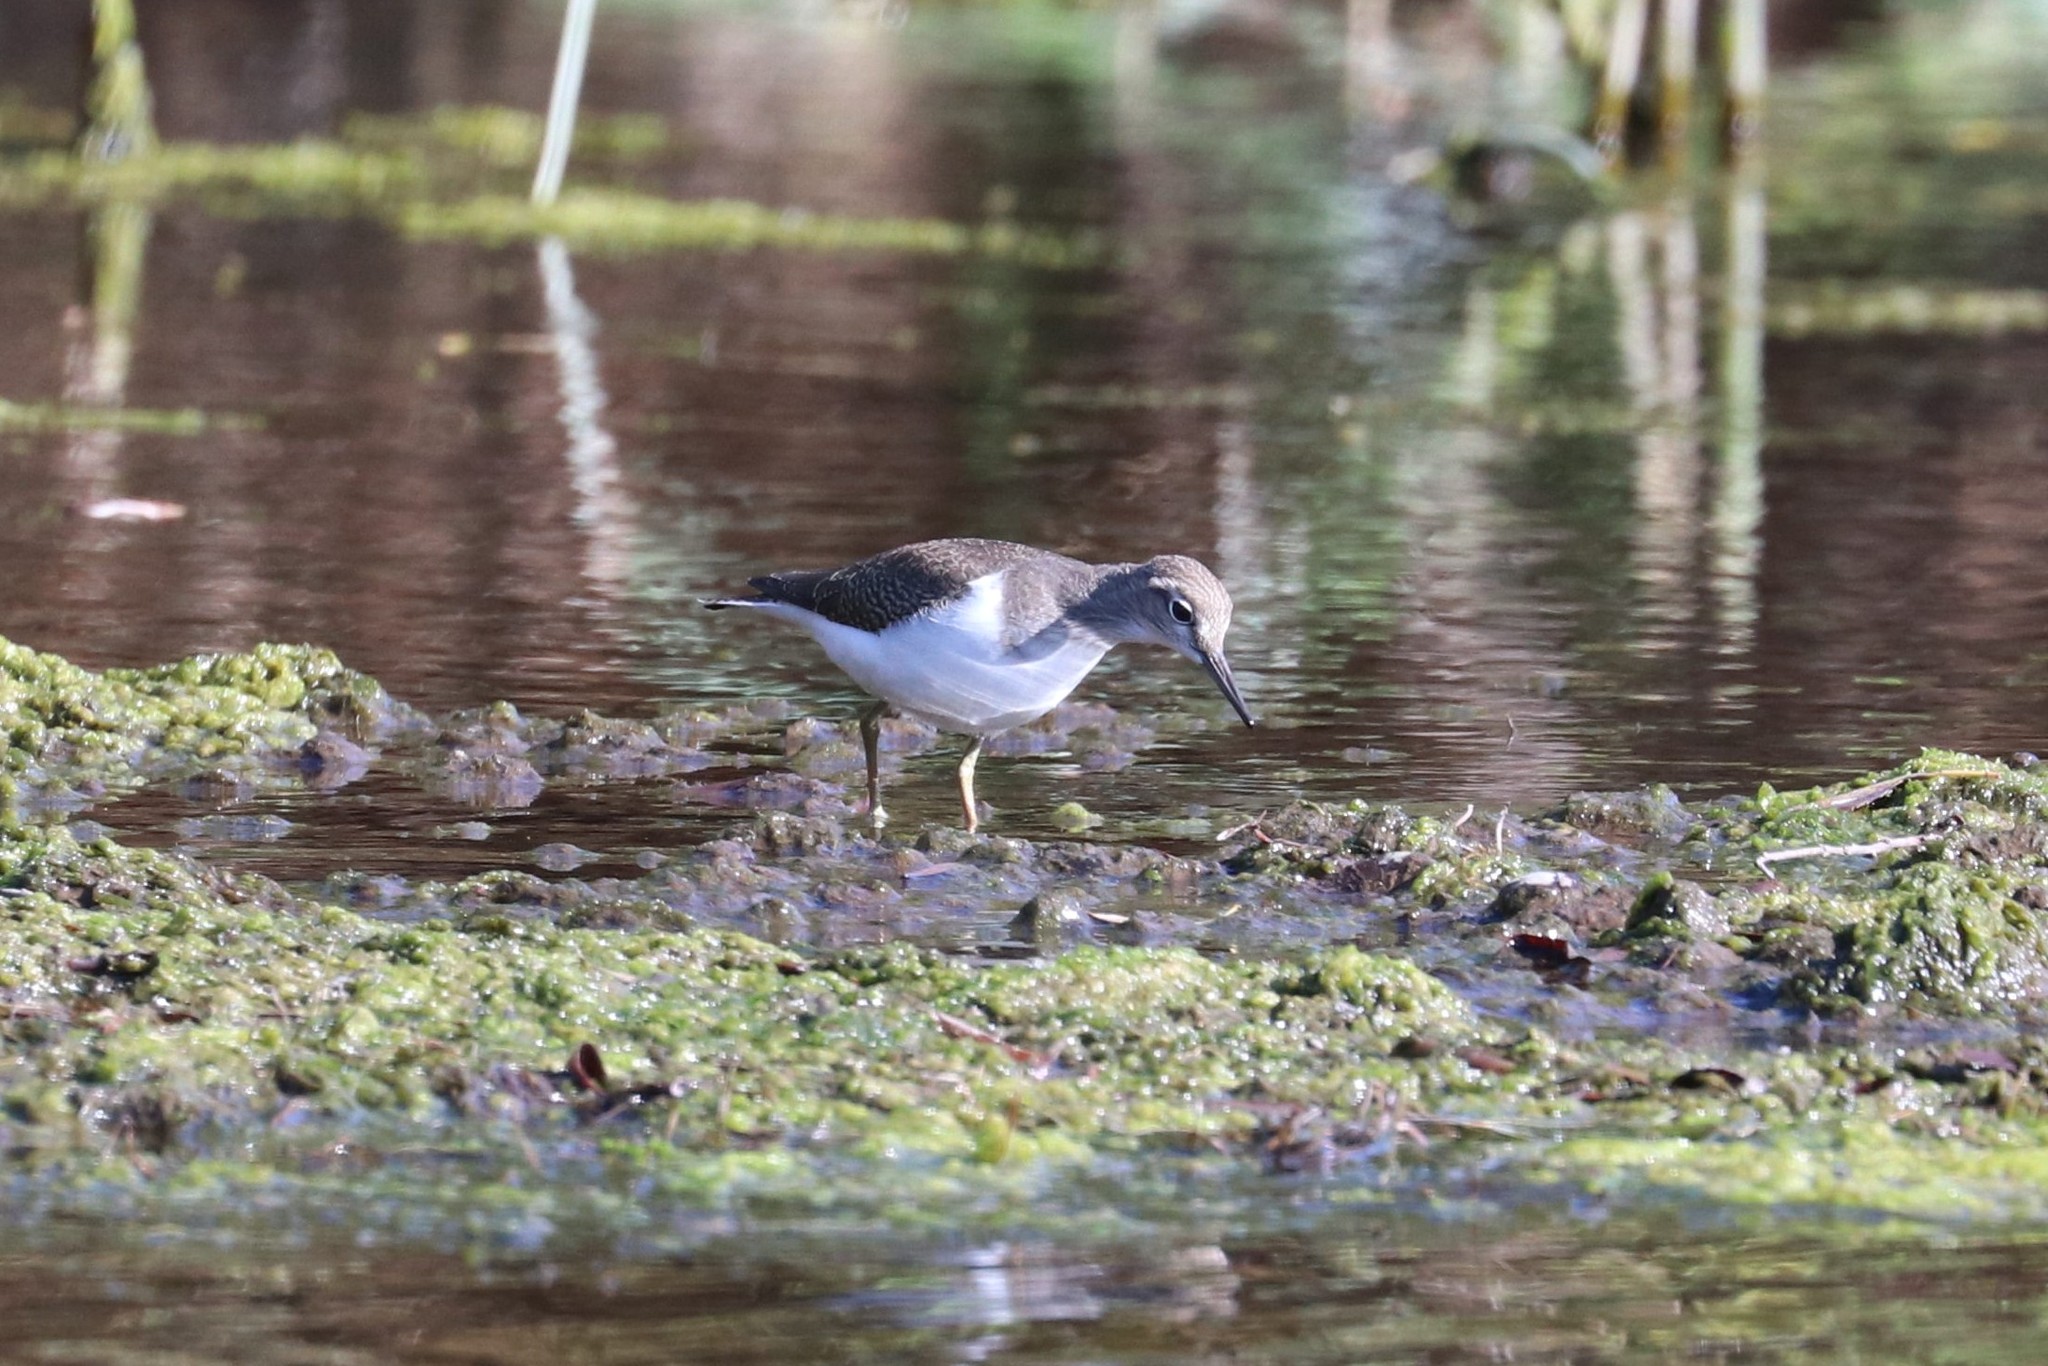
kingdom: Animalia
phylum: Chordata
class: Aves
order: Charadriiformes
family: Scolopacidae
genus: Actitis
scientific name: Actitis hypoleucos
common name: Common sandpiper
